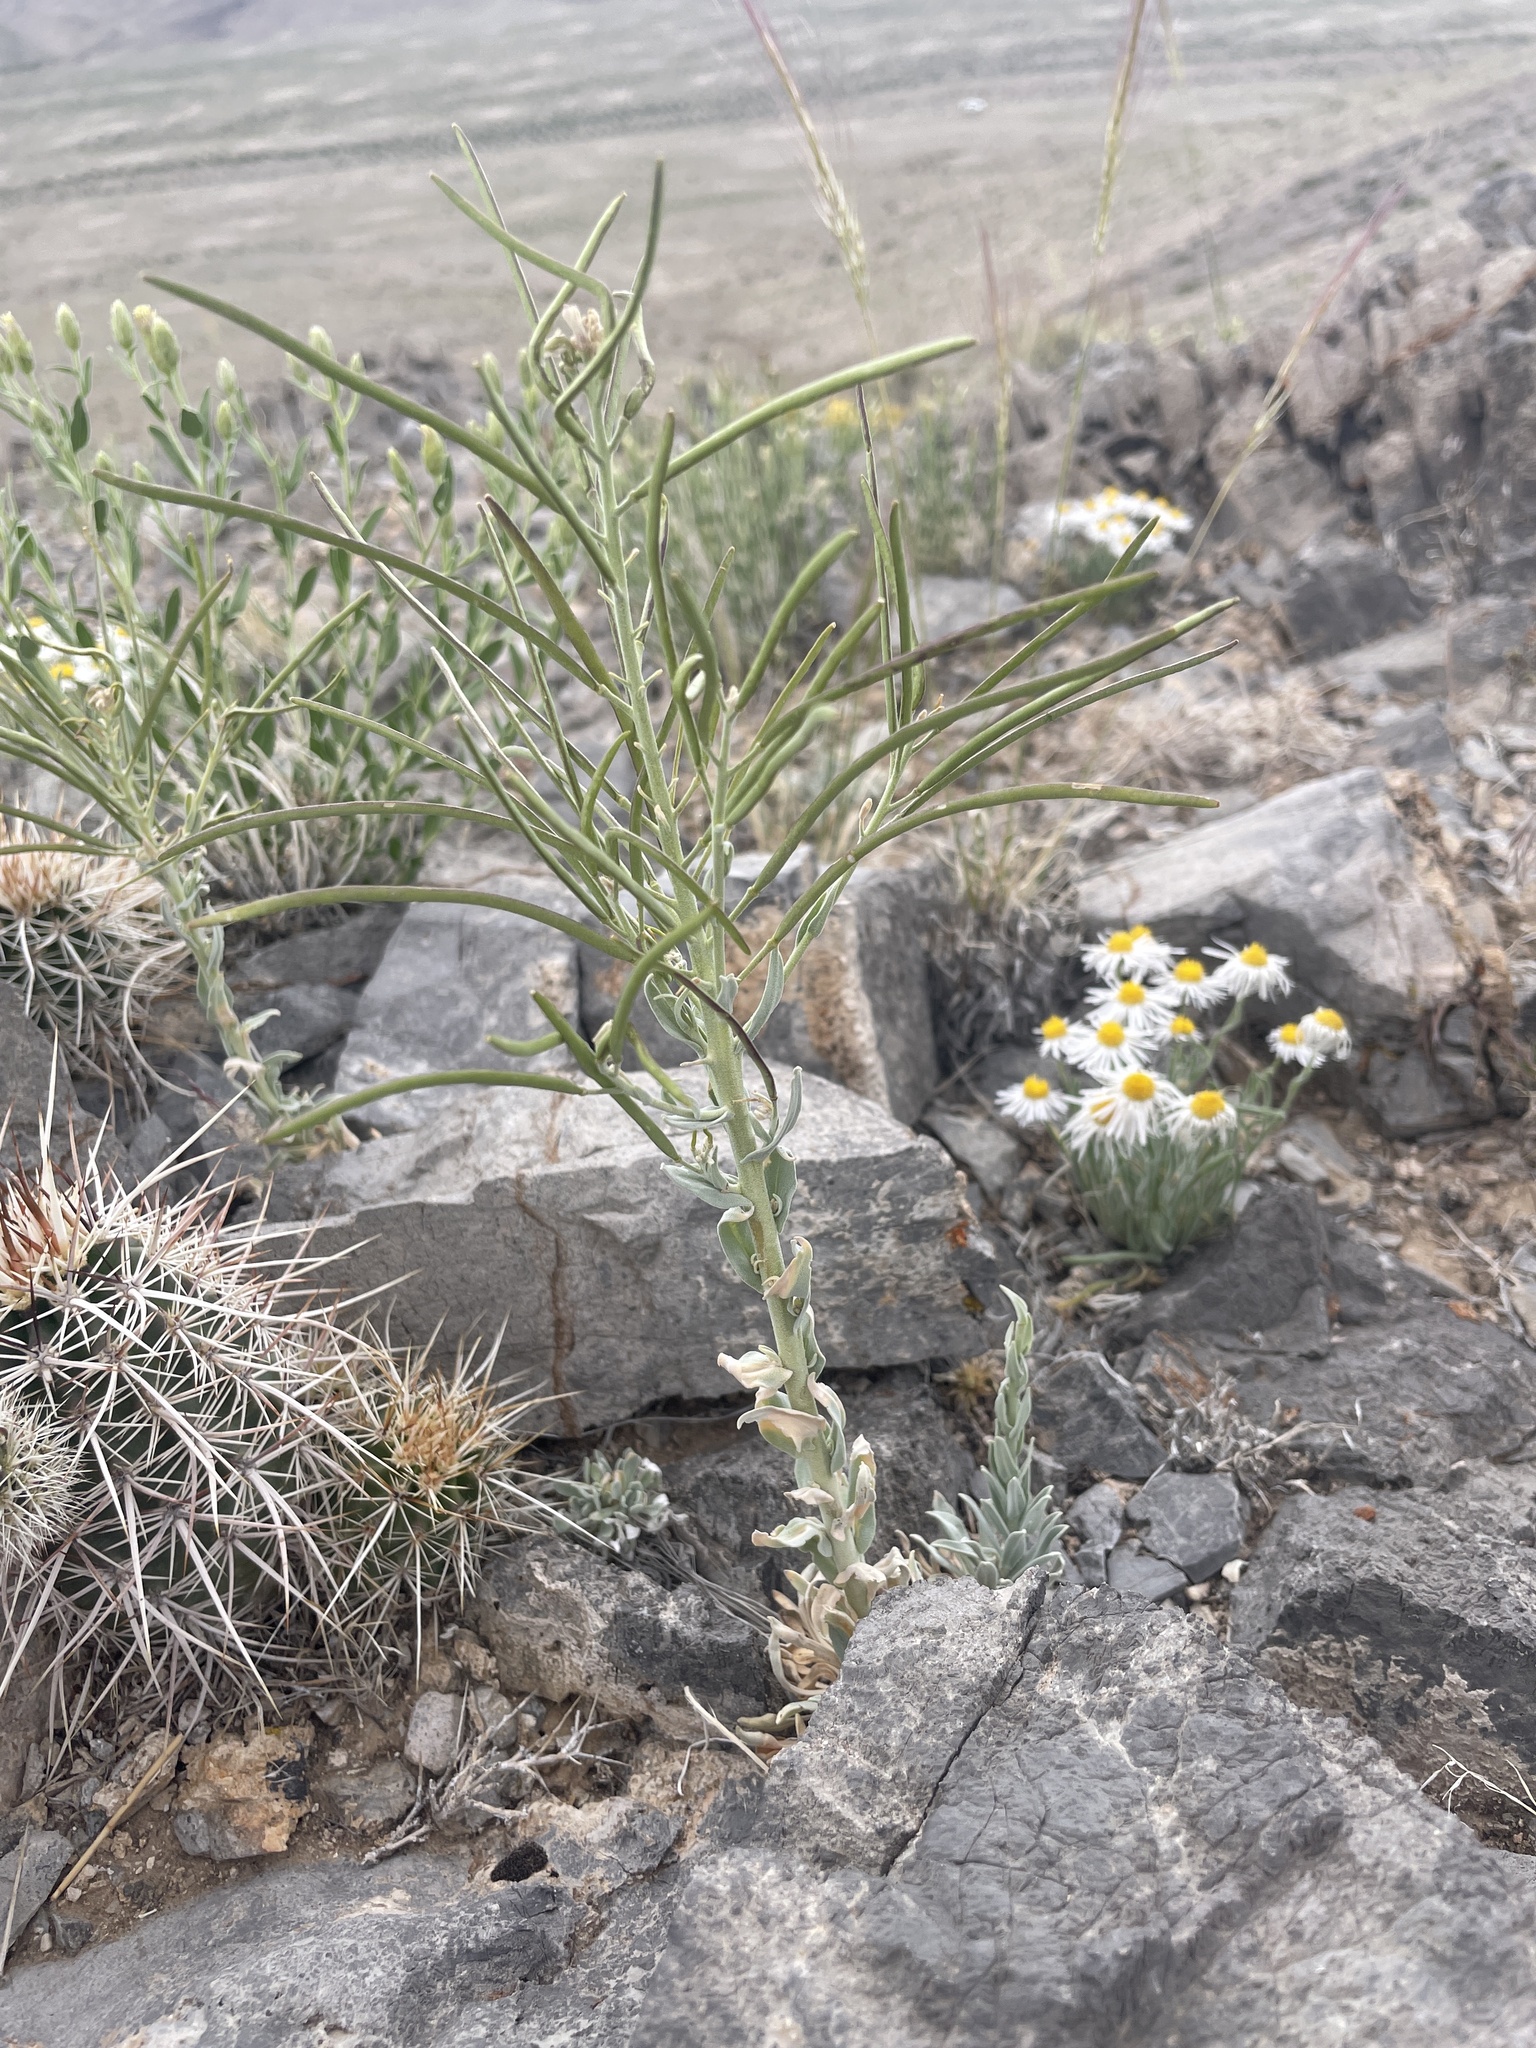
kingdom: Plantae
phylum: Tracheophyta
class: Magnoliopsida
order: Brassicales
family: Brassicaceae
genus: Boechera
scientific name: Boechera shockleyi
